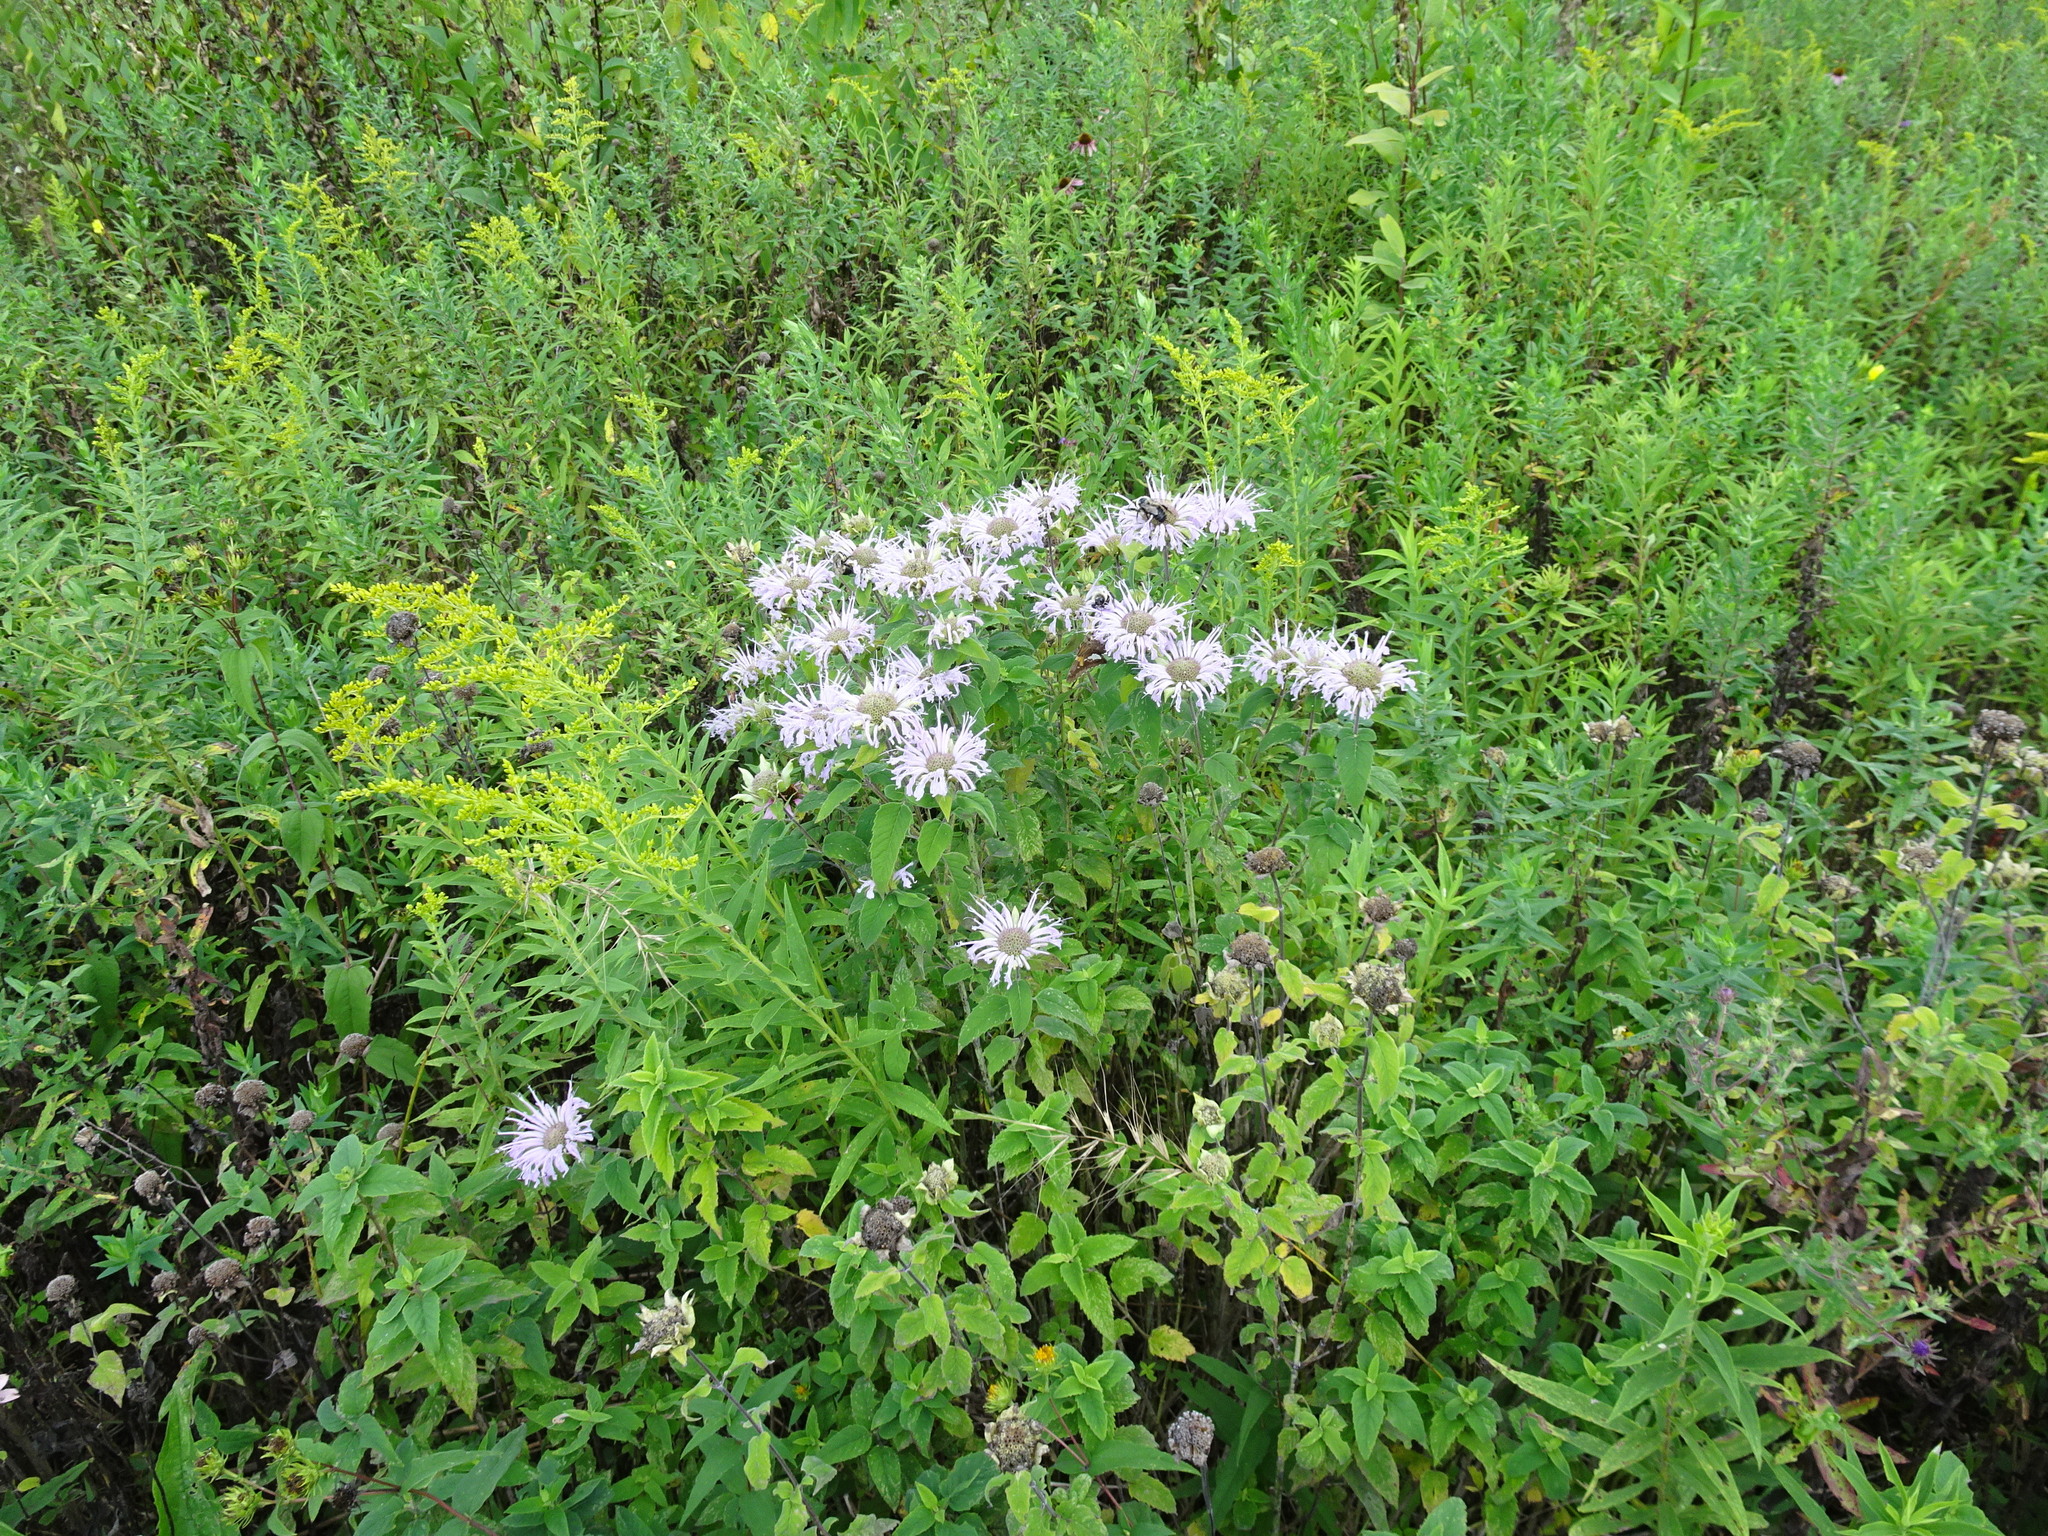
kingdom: Plantae
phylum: Tracheophyta
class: Magnoliopsida
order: Lamiales
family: Lamiaceae
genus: Monarda
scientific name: Monarda fistulosa
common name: Purple beebalm
